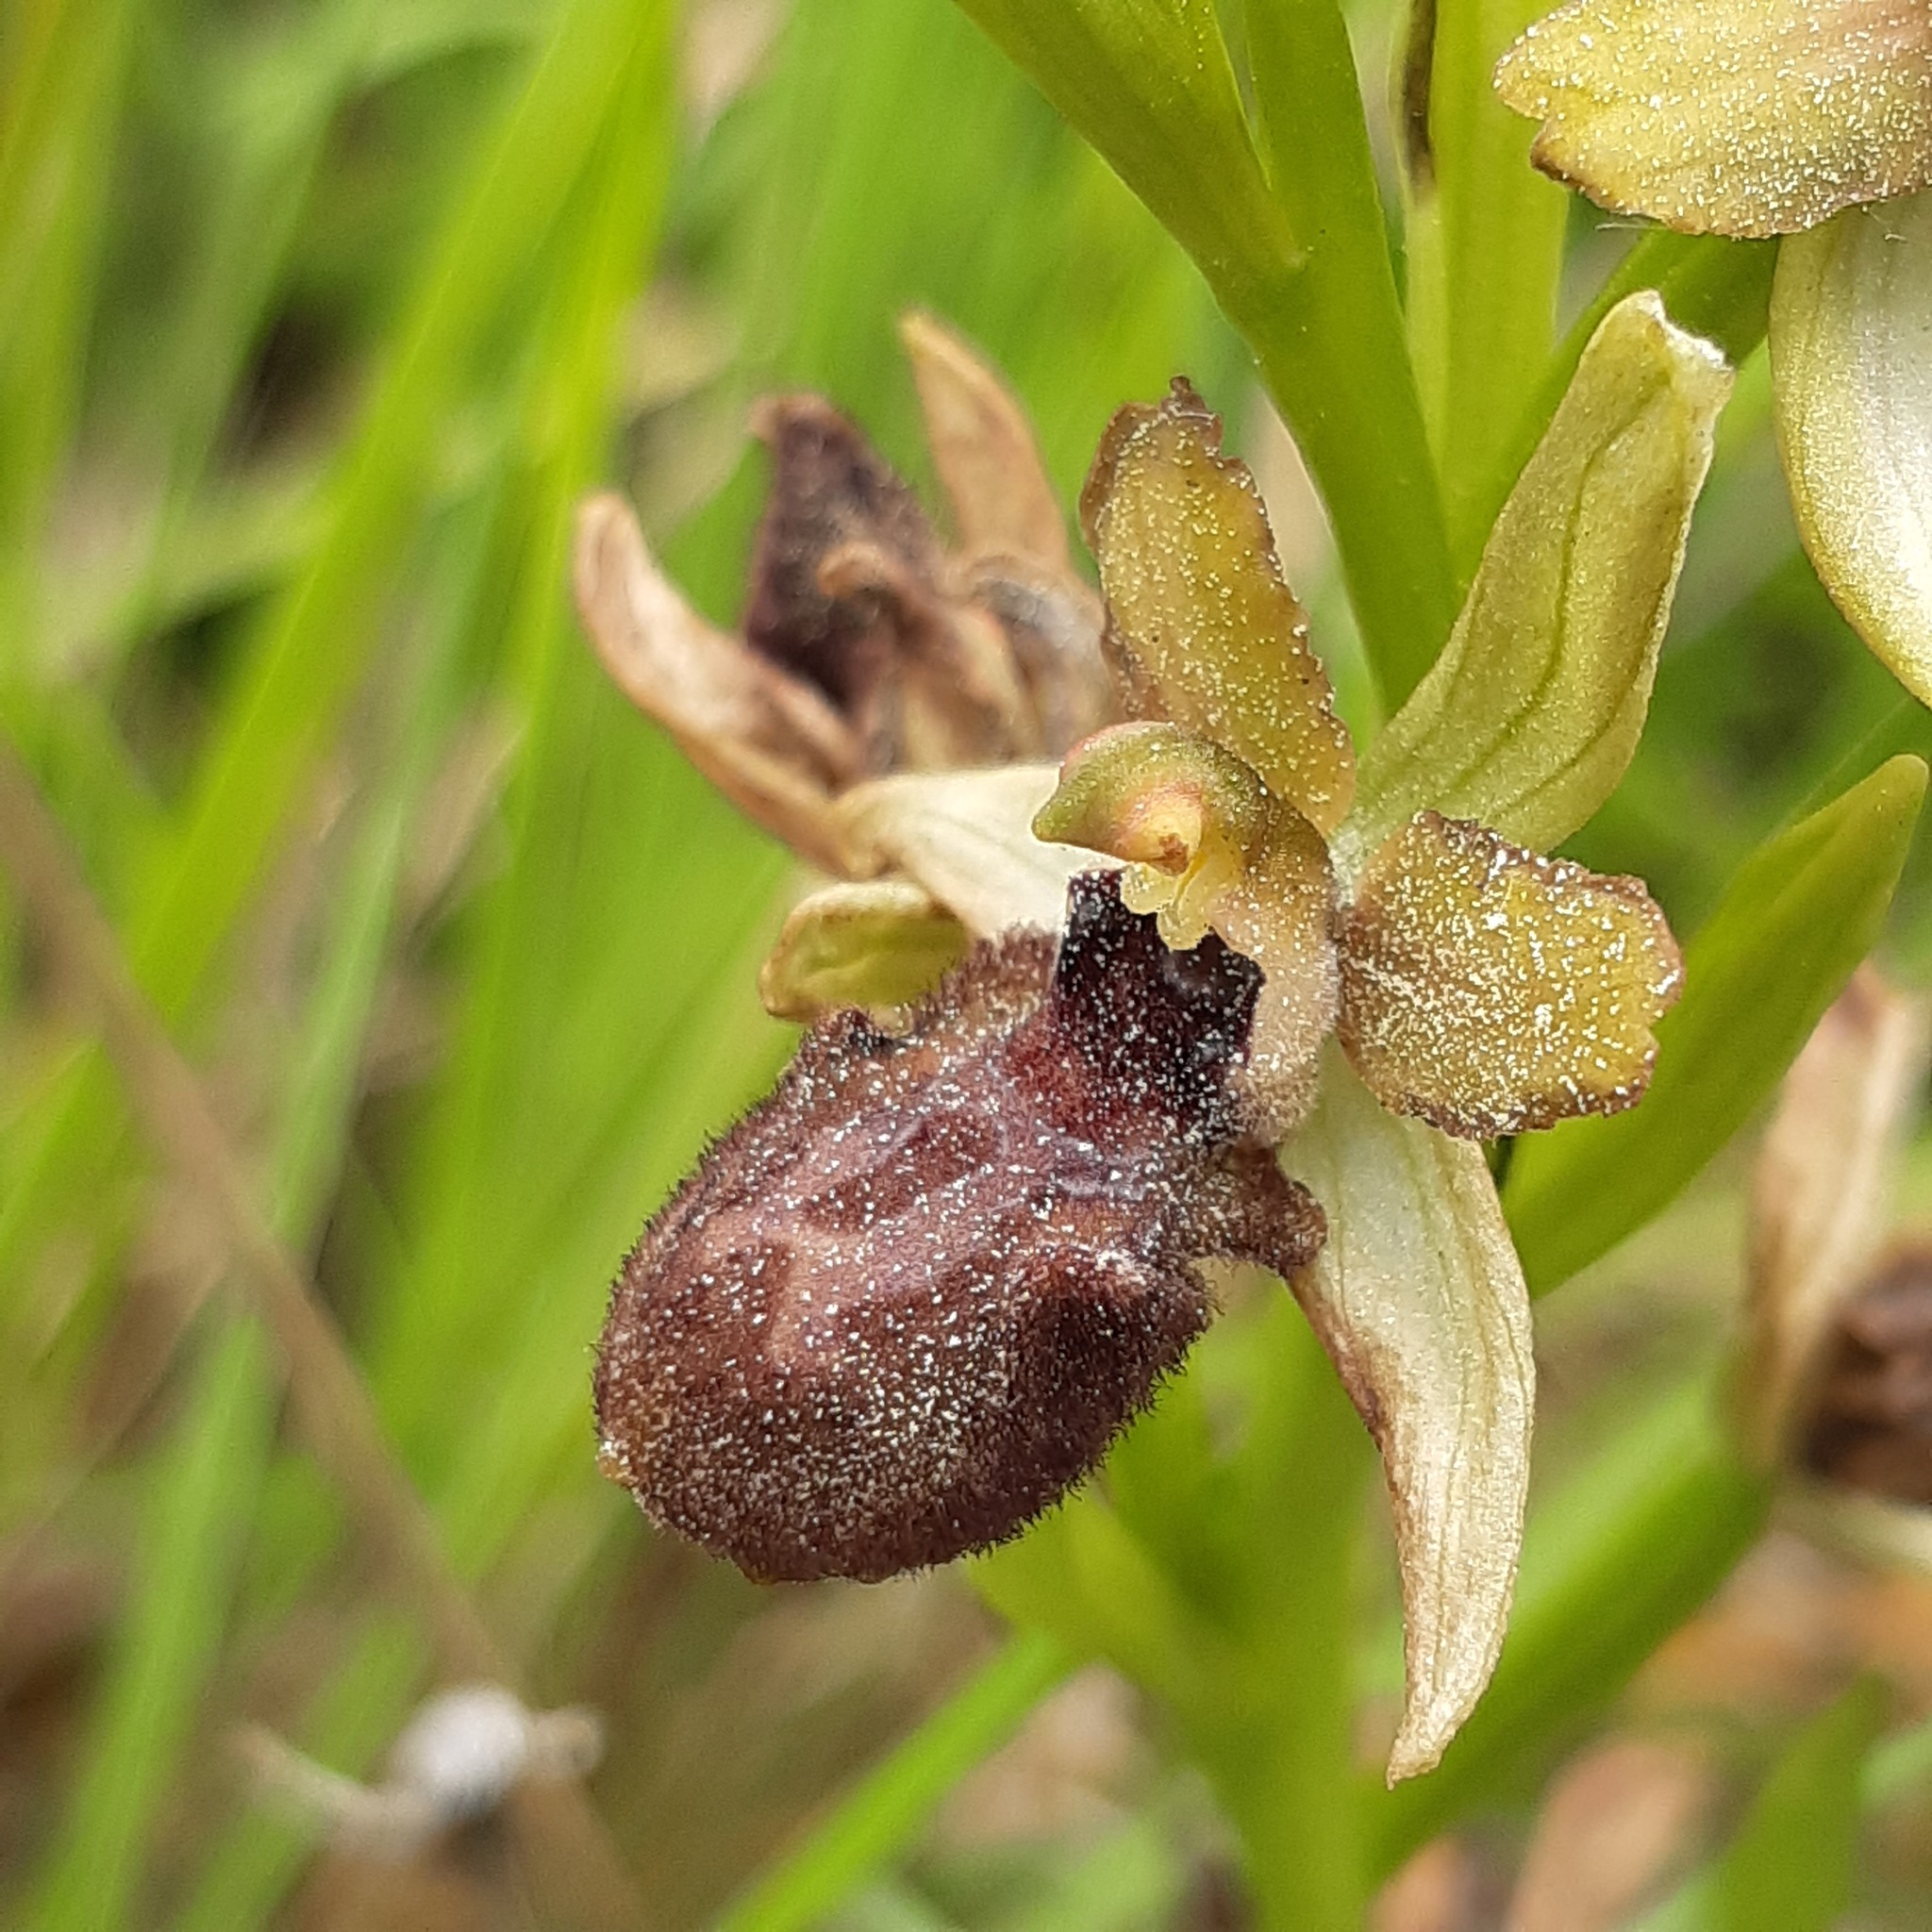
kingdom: Plantae
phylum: Tracheophyta
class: Liliopsida
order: Asparagales
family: Orchidaceae
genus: Ophrys
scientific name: Ophrys sphegodes
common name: Early spider-orchid
